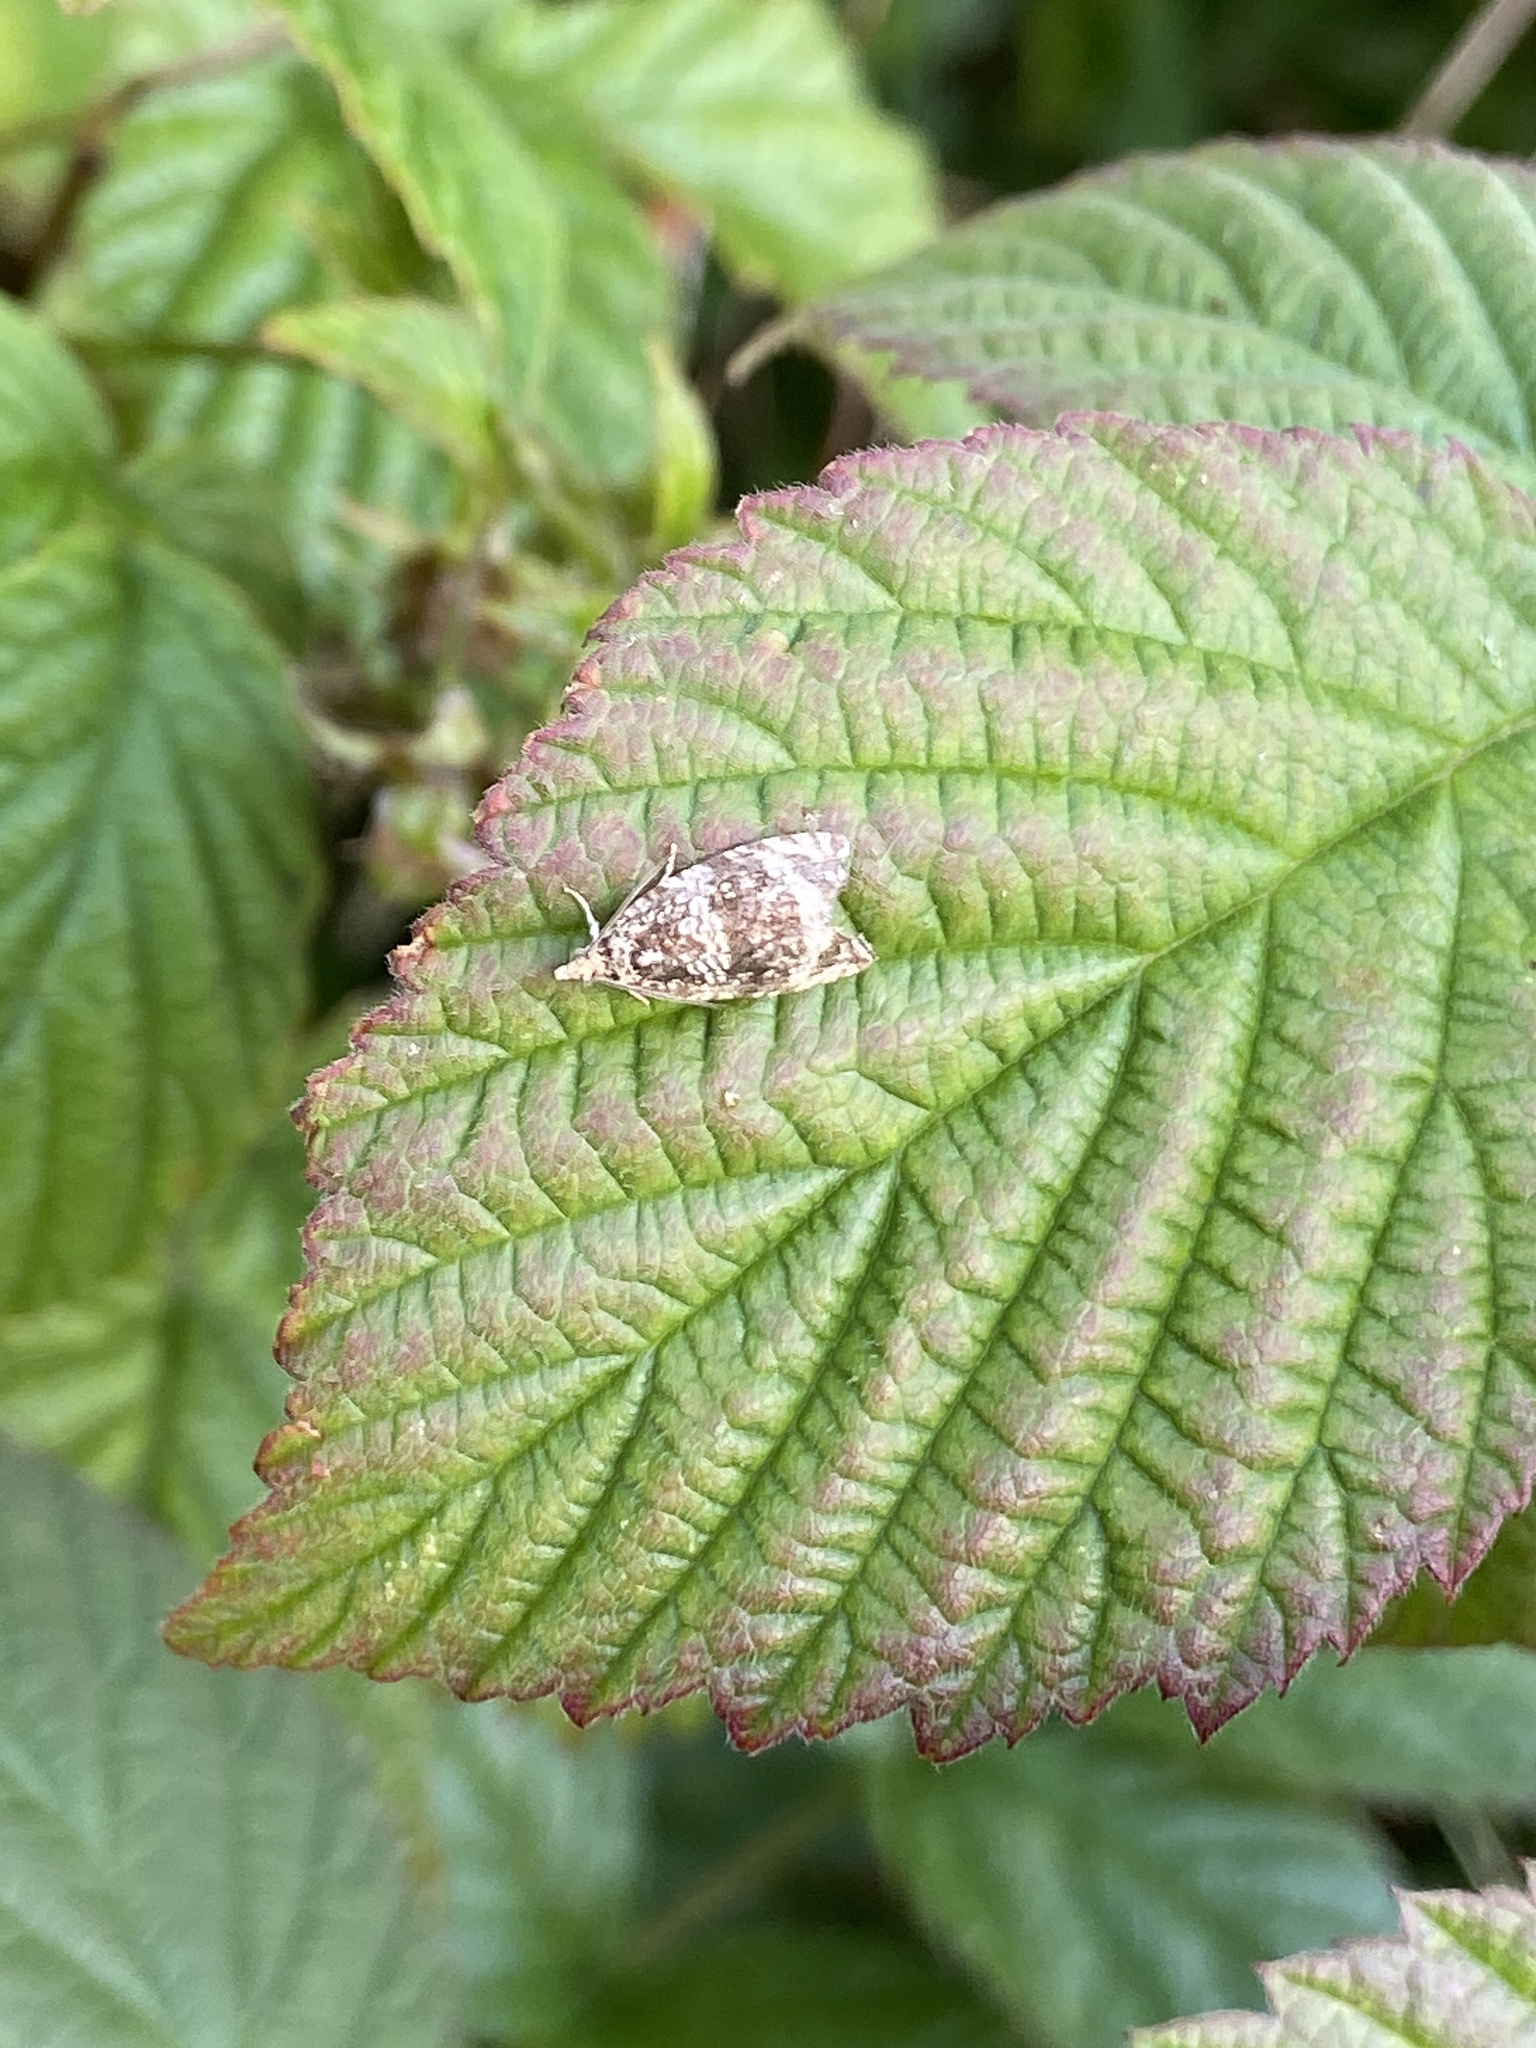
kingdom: Animalia
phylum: Arthropoda
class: Insecta
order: Lepidoptera
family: Tortricidae
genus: Syricoris
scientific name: Syricoris lacunana
